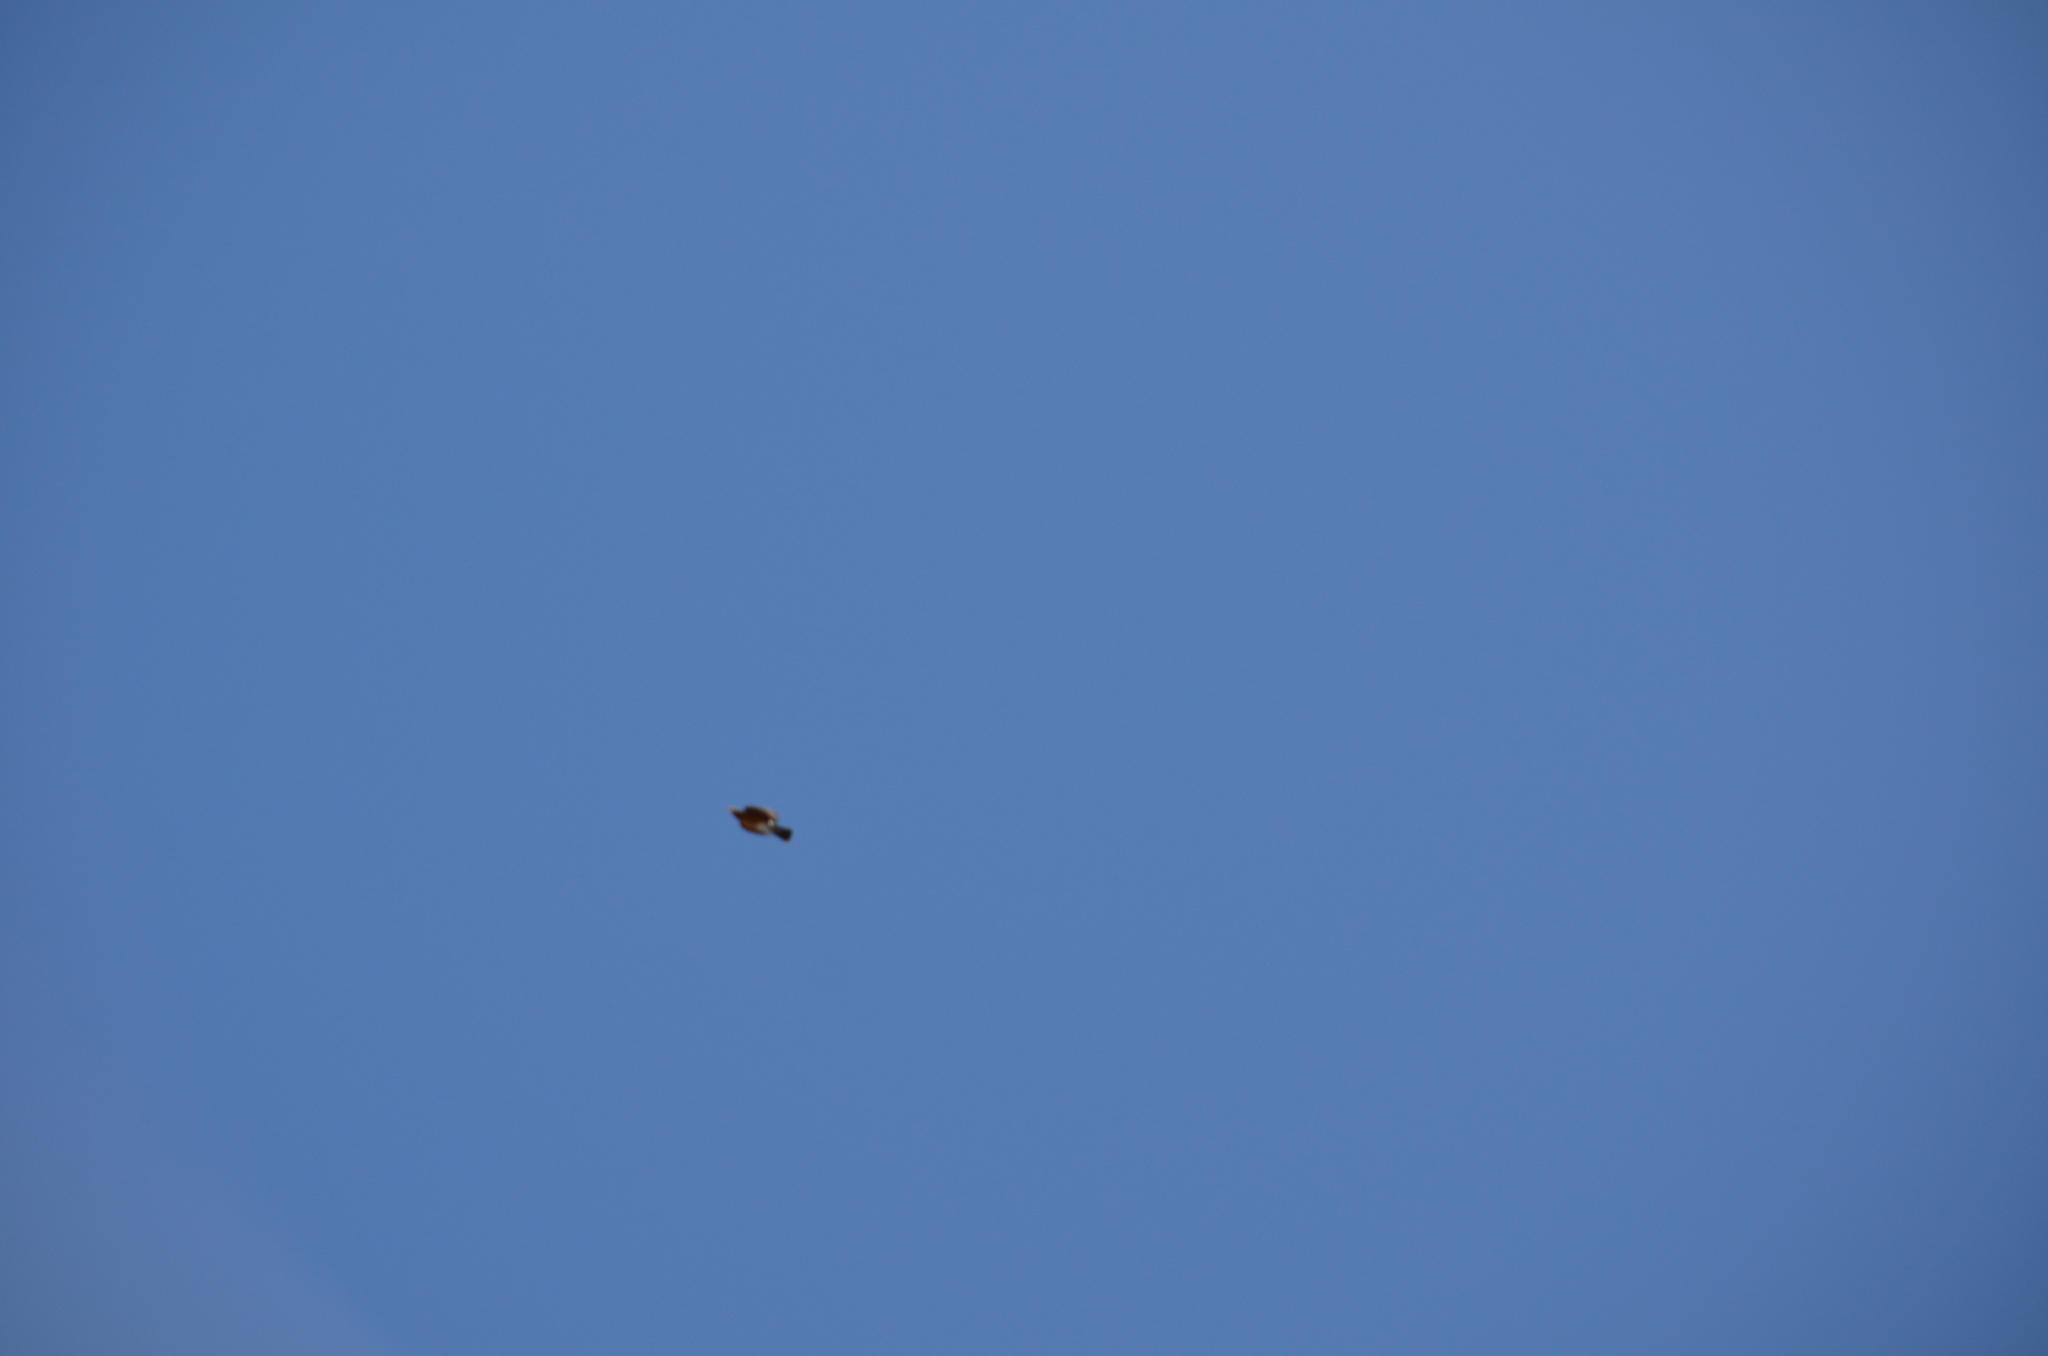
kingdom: Animalia
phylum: Chordata
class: Aves
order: Passeriformes
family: Turdidae
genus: Turdus
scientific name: Turdus migratorius
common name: American robin
